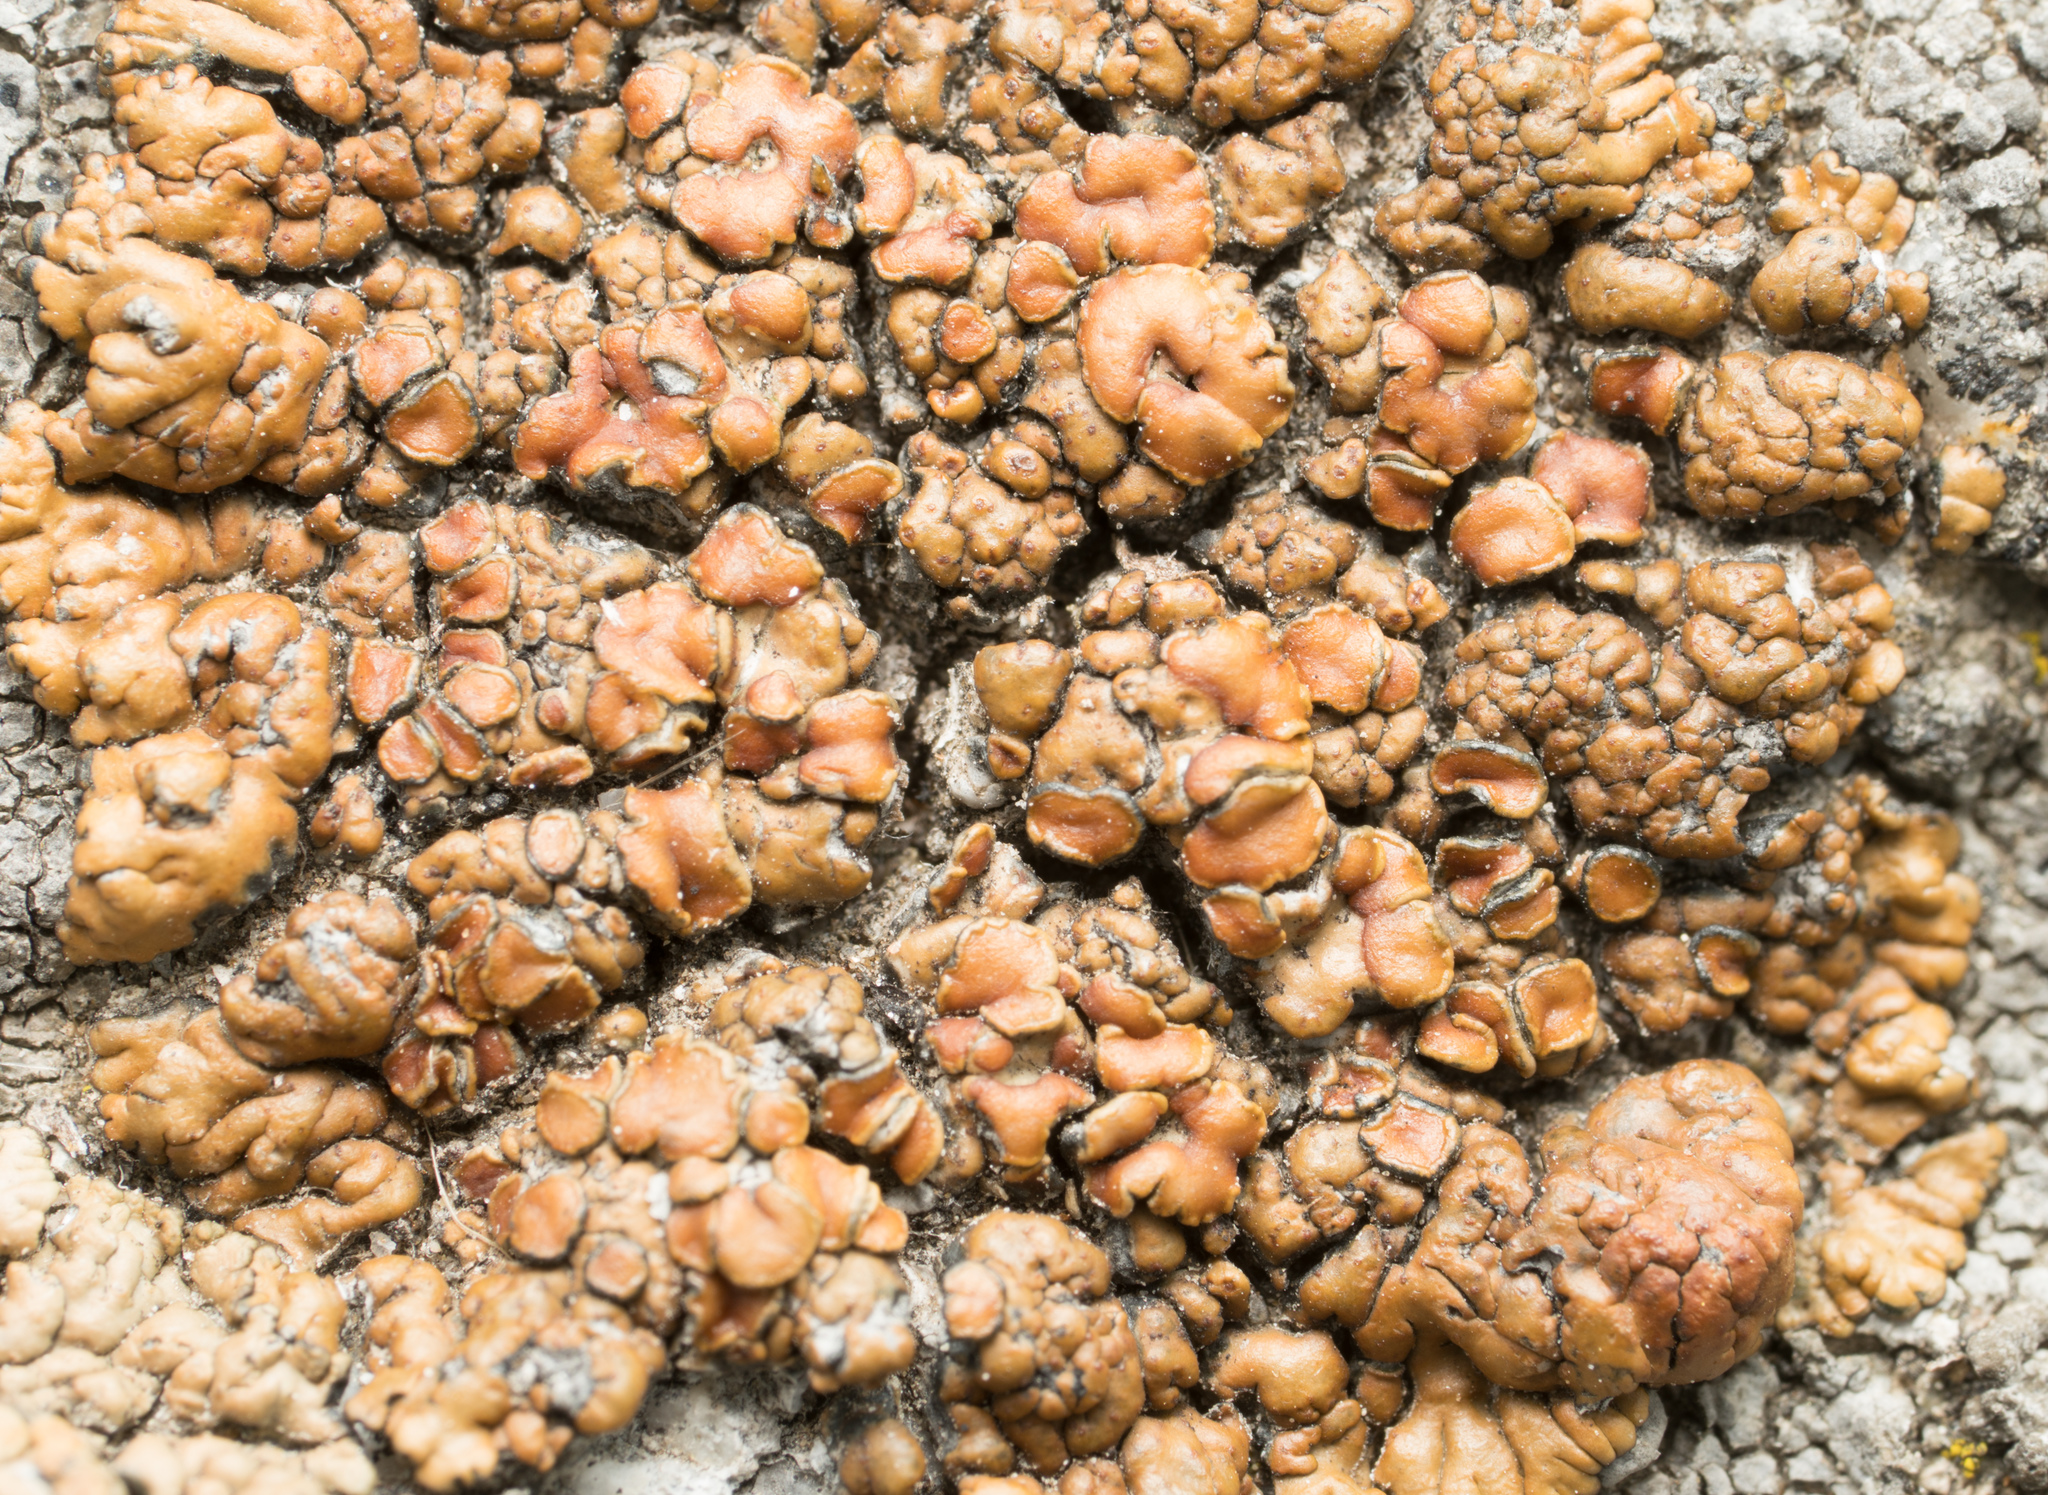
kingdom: Fungi
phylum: Ascomycota
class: Lecanoromycetes
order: Lecanorales
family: Lecanoraceae
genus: Lecanora
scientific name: Lecanora mellea
